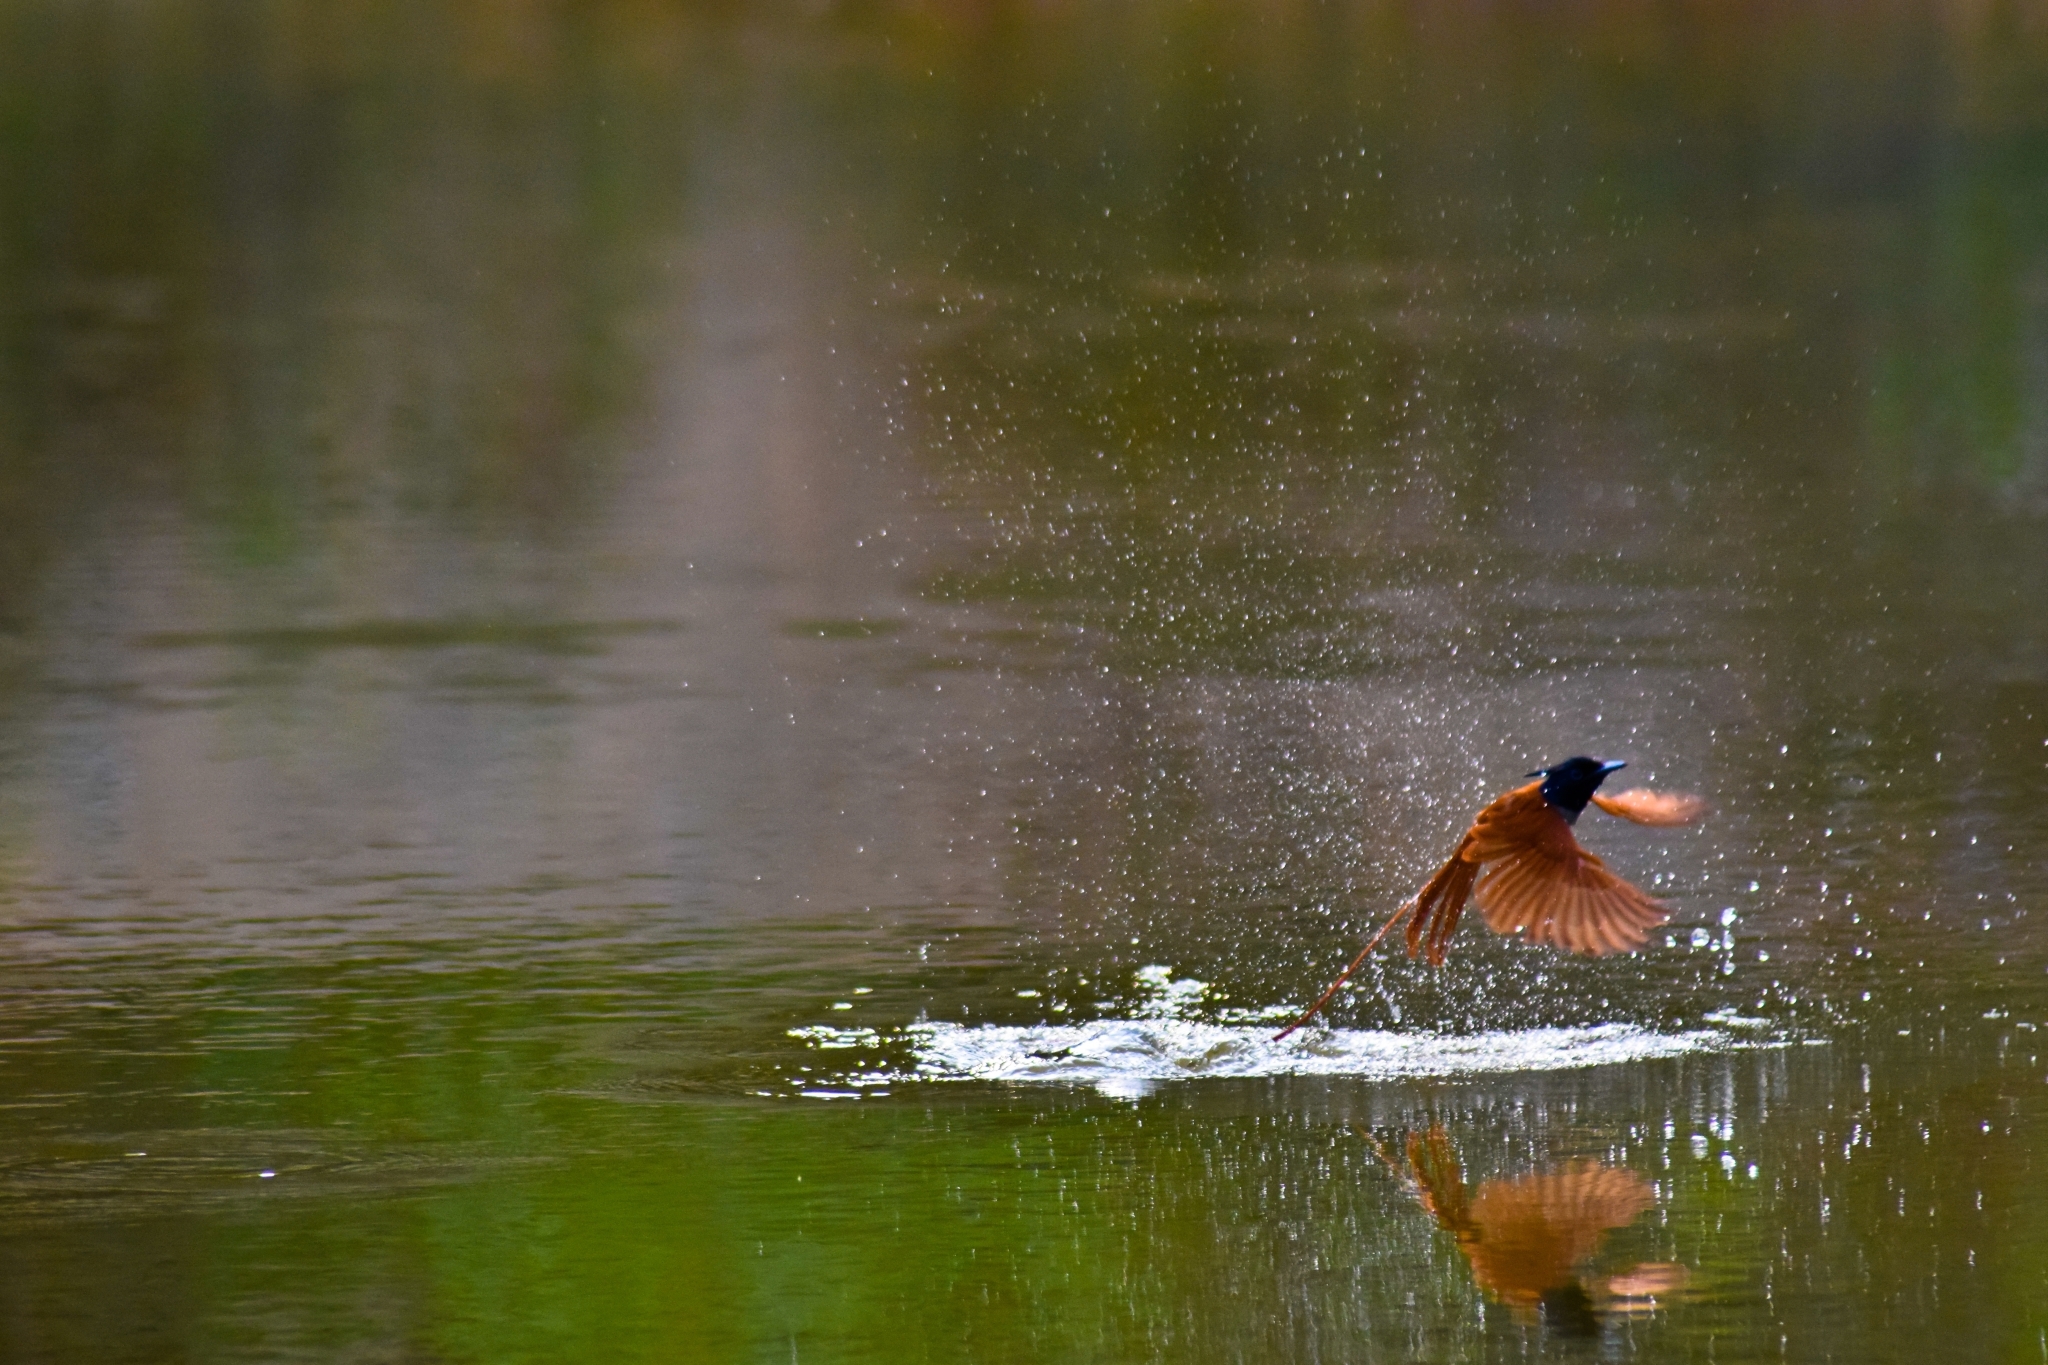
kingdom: Animalia
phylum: Chordata
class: Aves
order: Passeriformes
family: Monarchidae
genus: Terpsiphone
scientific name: Terpsiphone paradisi
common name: Indian paradise flycatcher
